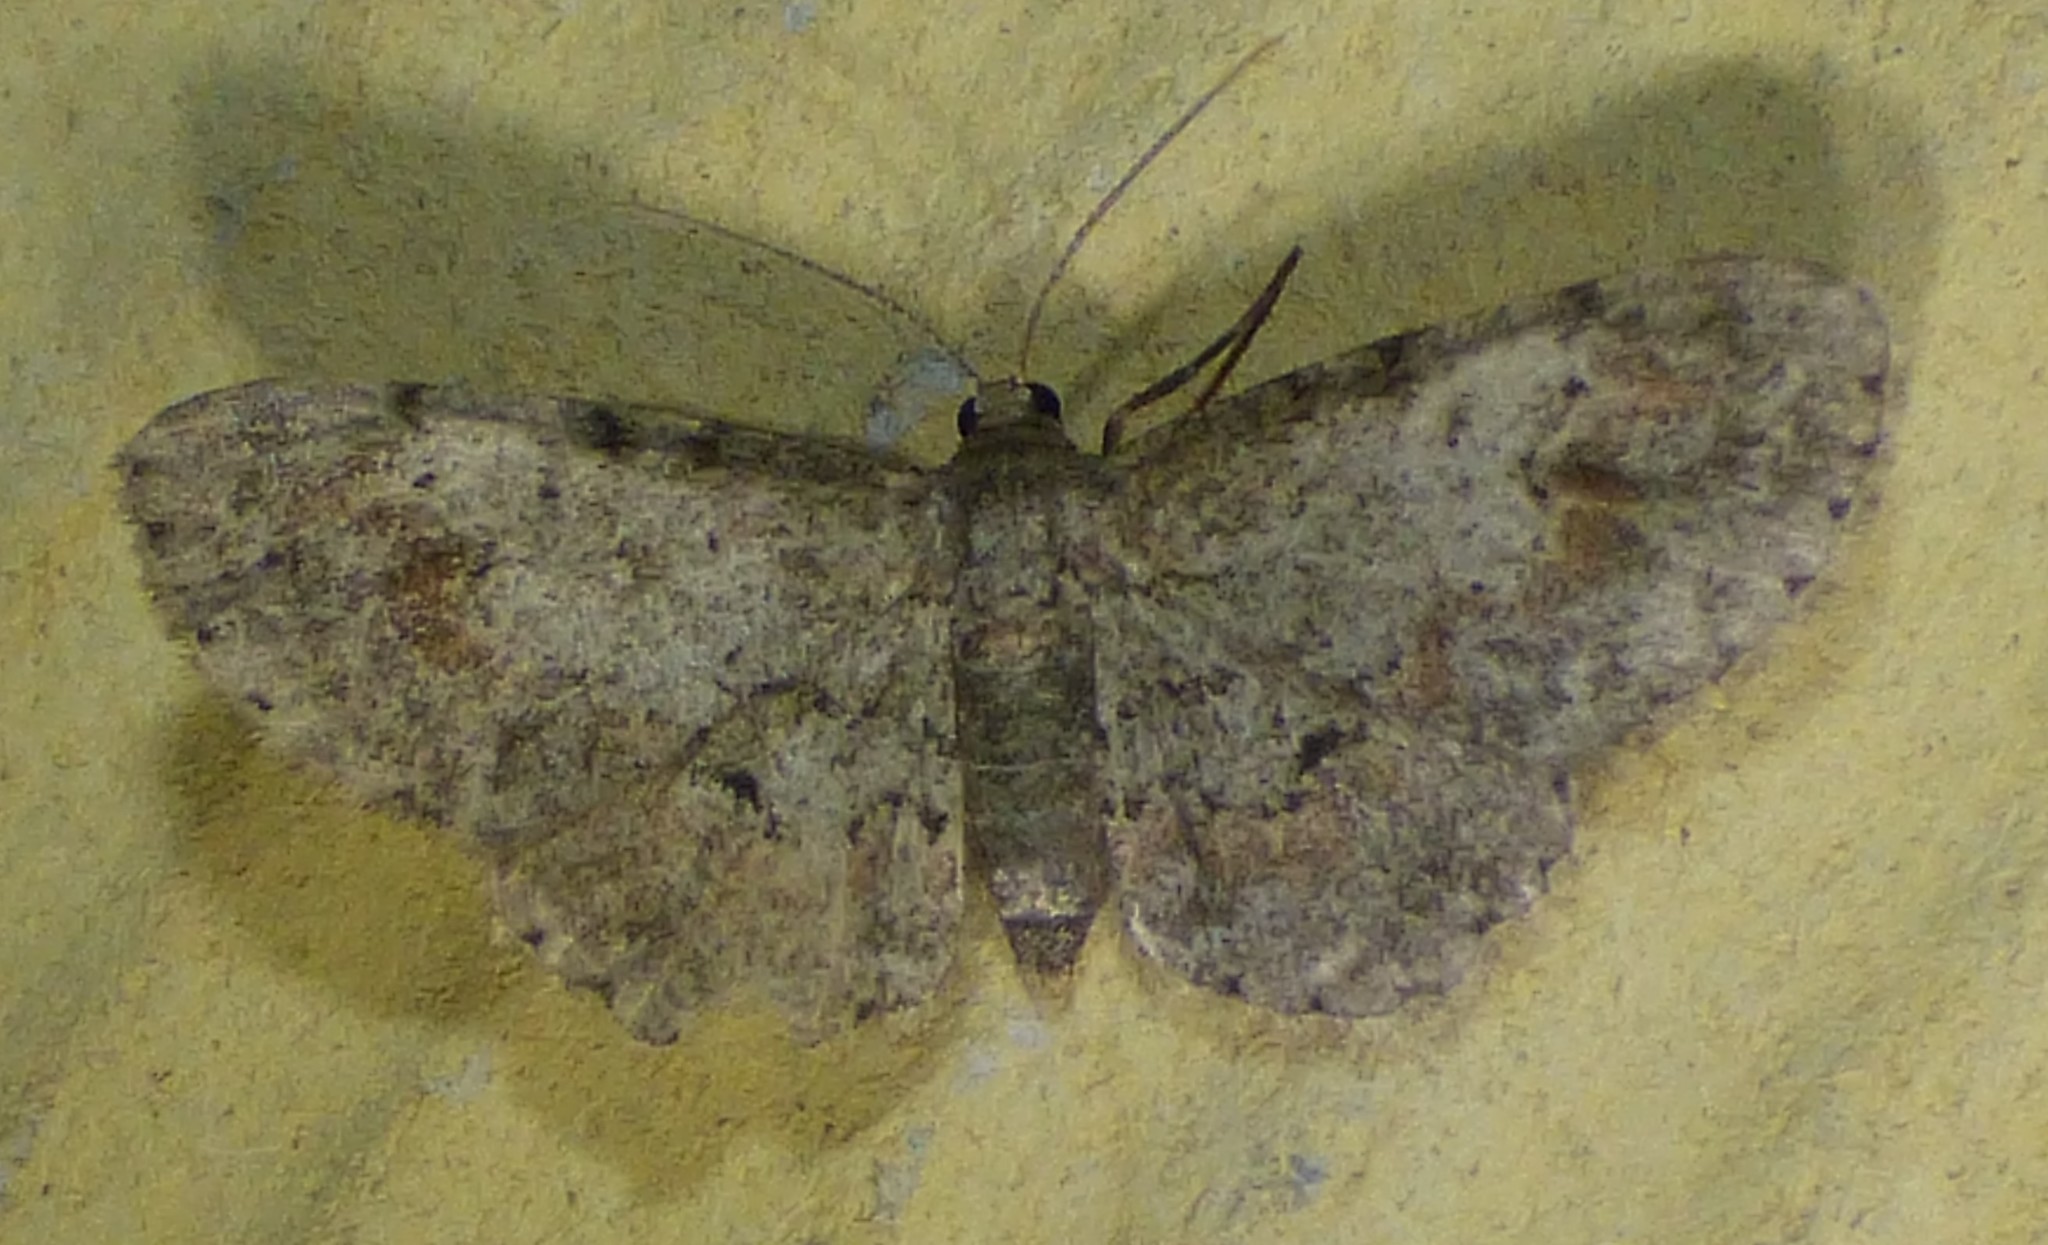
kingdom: Animalia
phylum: Arthropoda
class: Insecta
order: Lepidoptera
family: Geometridae
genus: Glenoides
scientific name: Glenoides texanaria
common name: Texas gray
